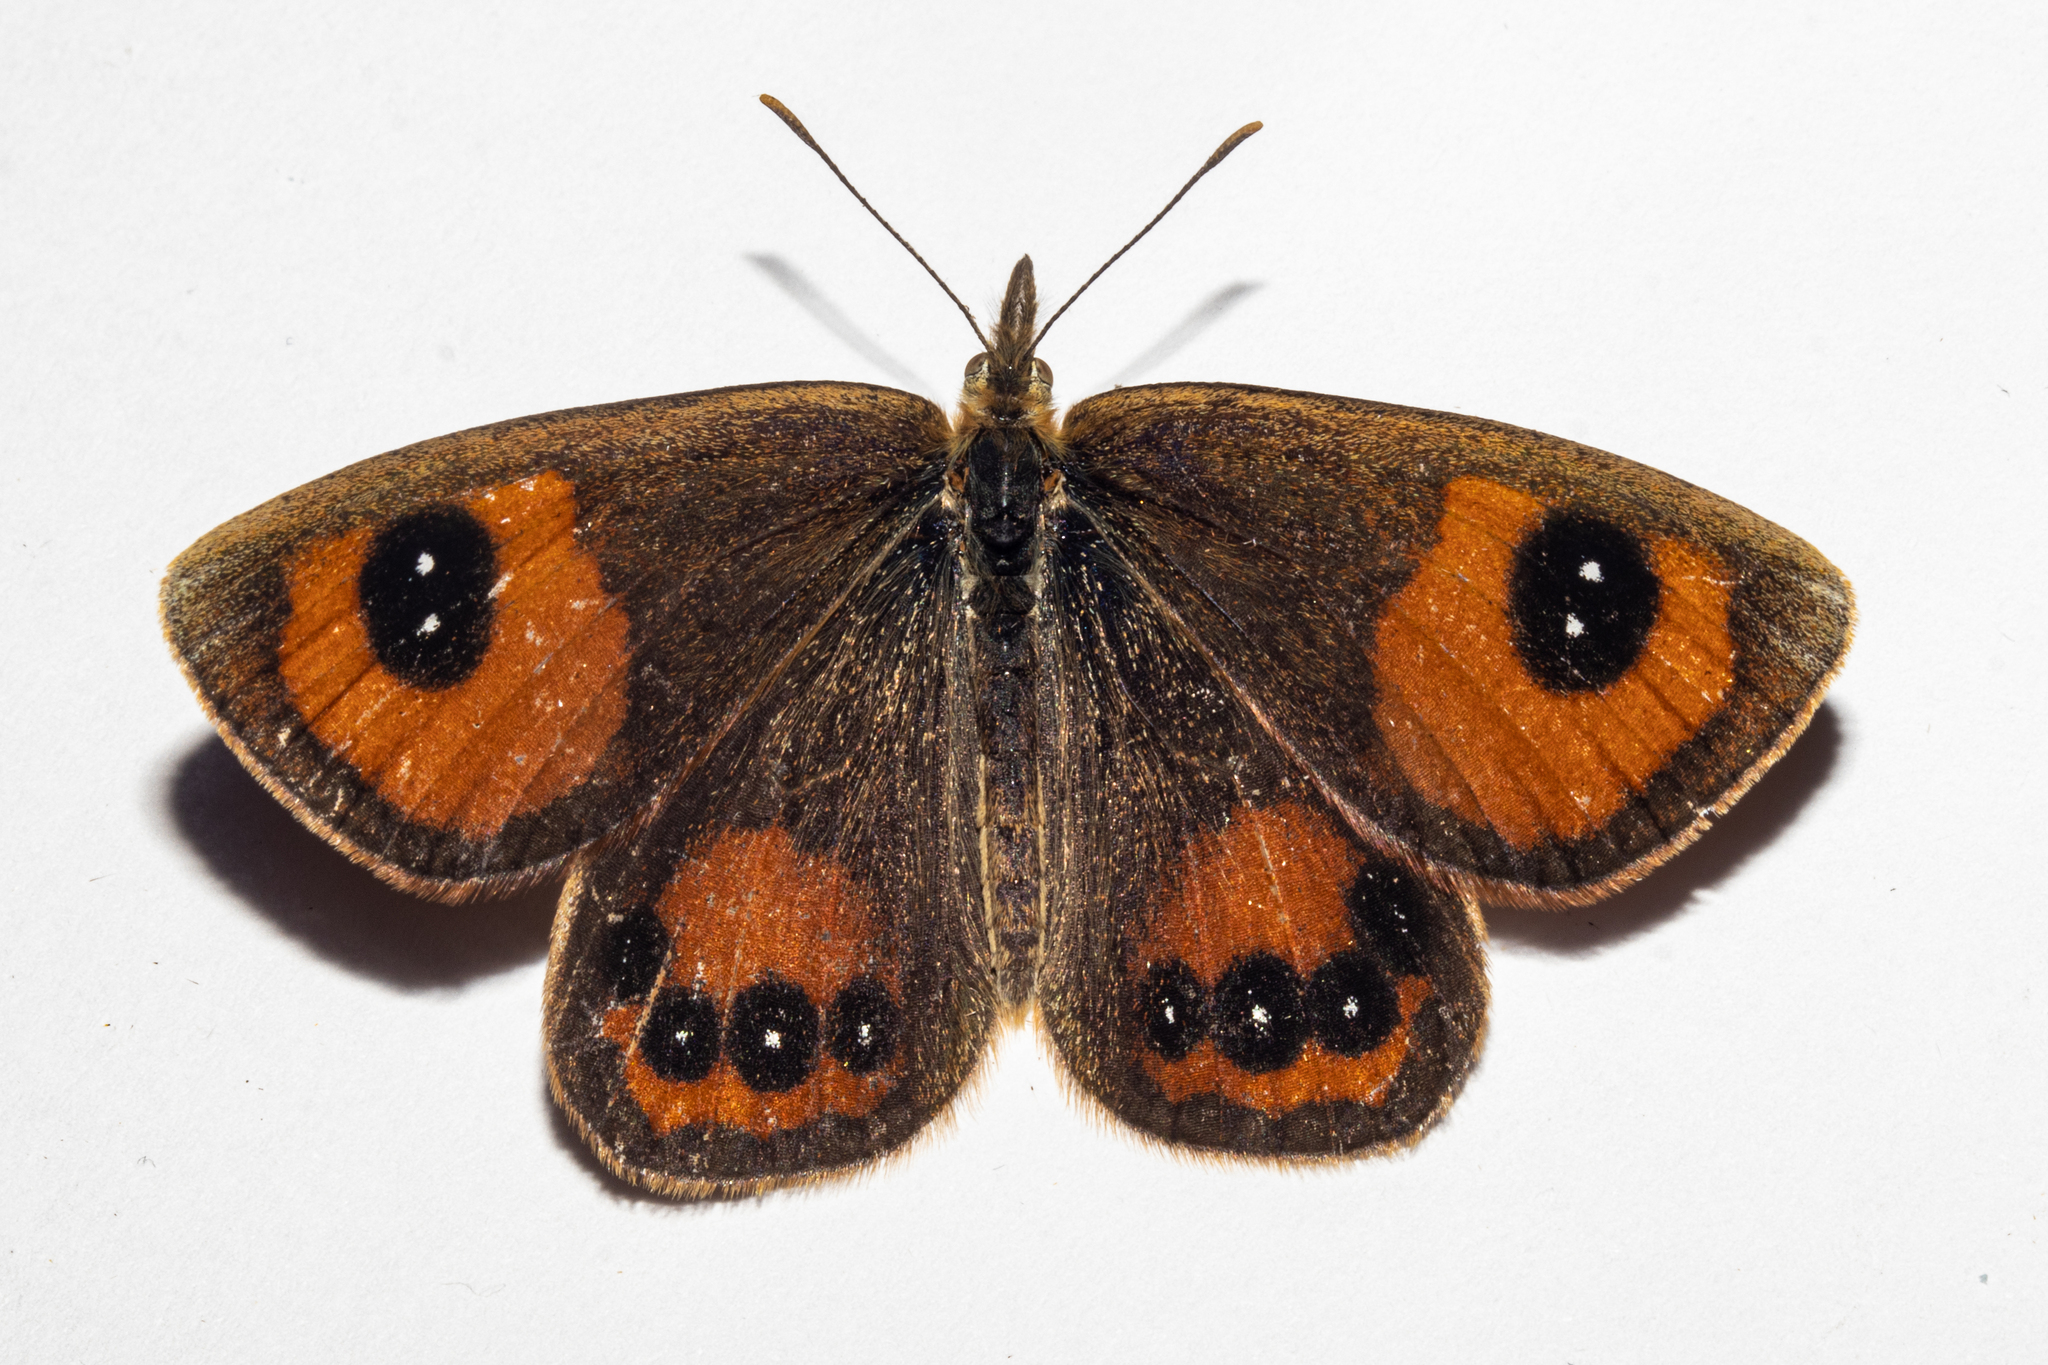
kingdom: Animalia
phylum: Arthropoda
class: Insecta
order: Lepidoptera
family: Nymphalidae
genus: Argyrophenga
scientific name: Argyrophenga antipodum
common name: Common tussock butterfly
